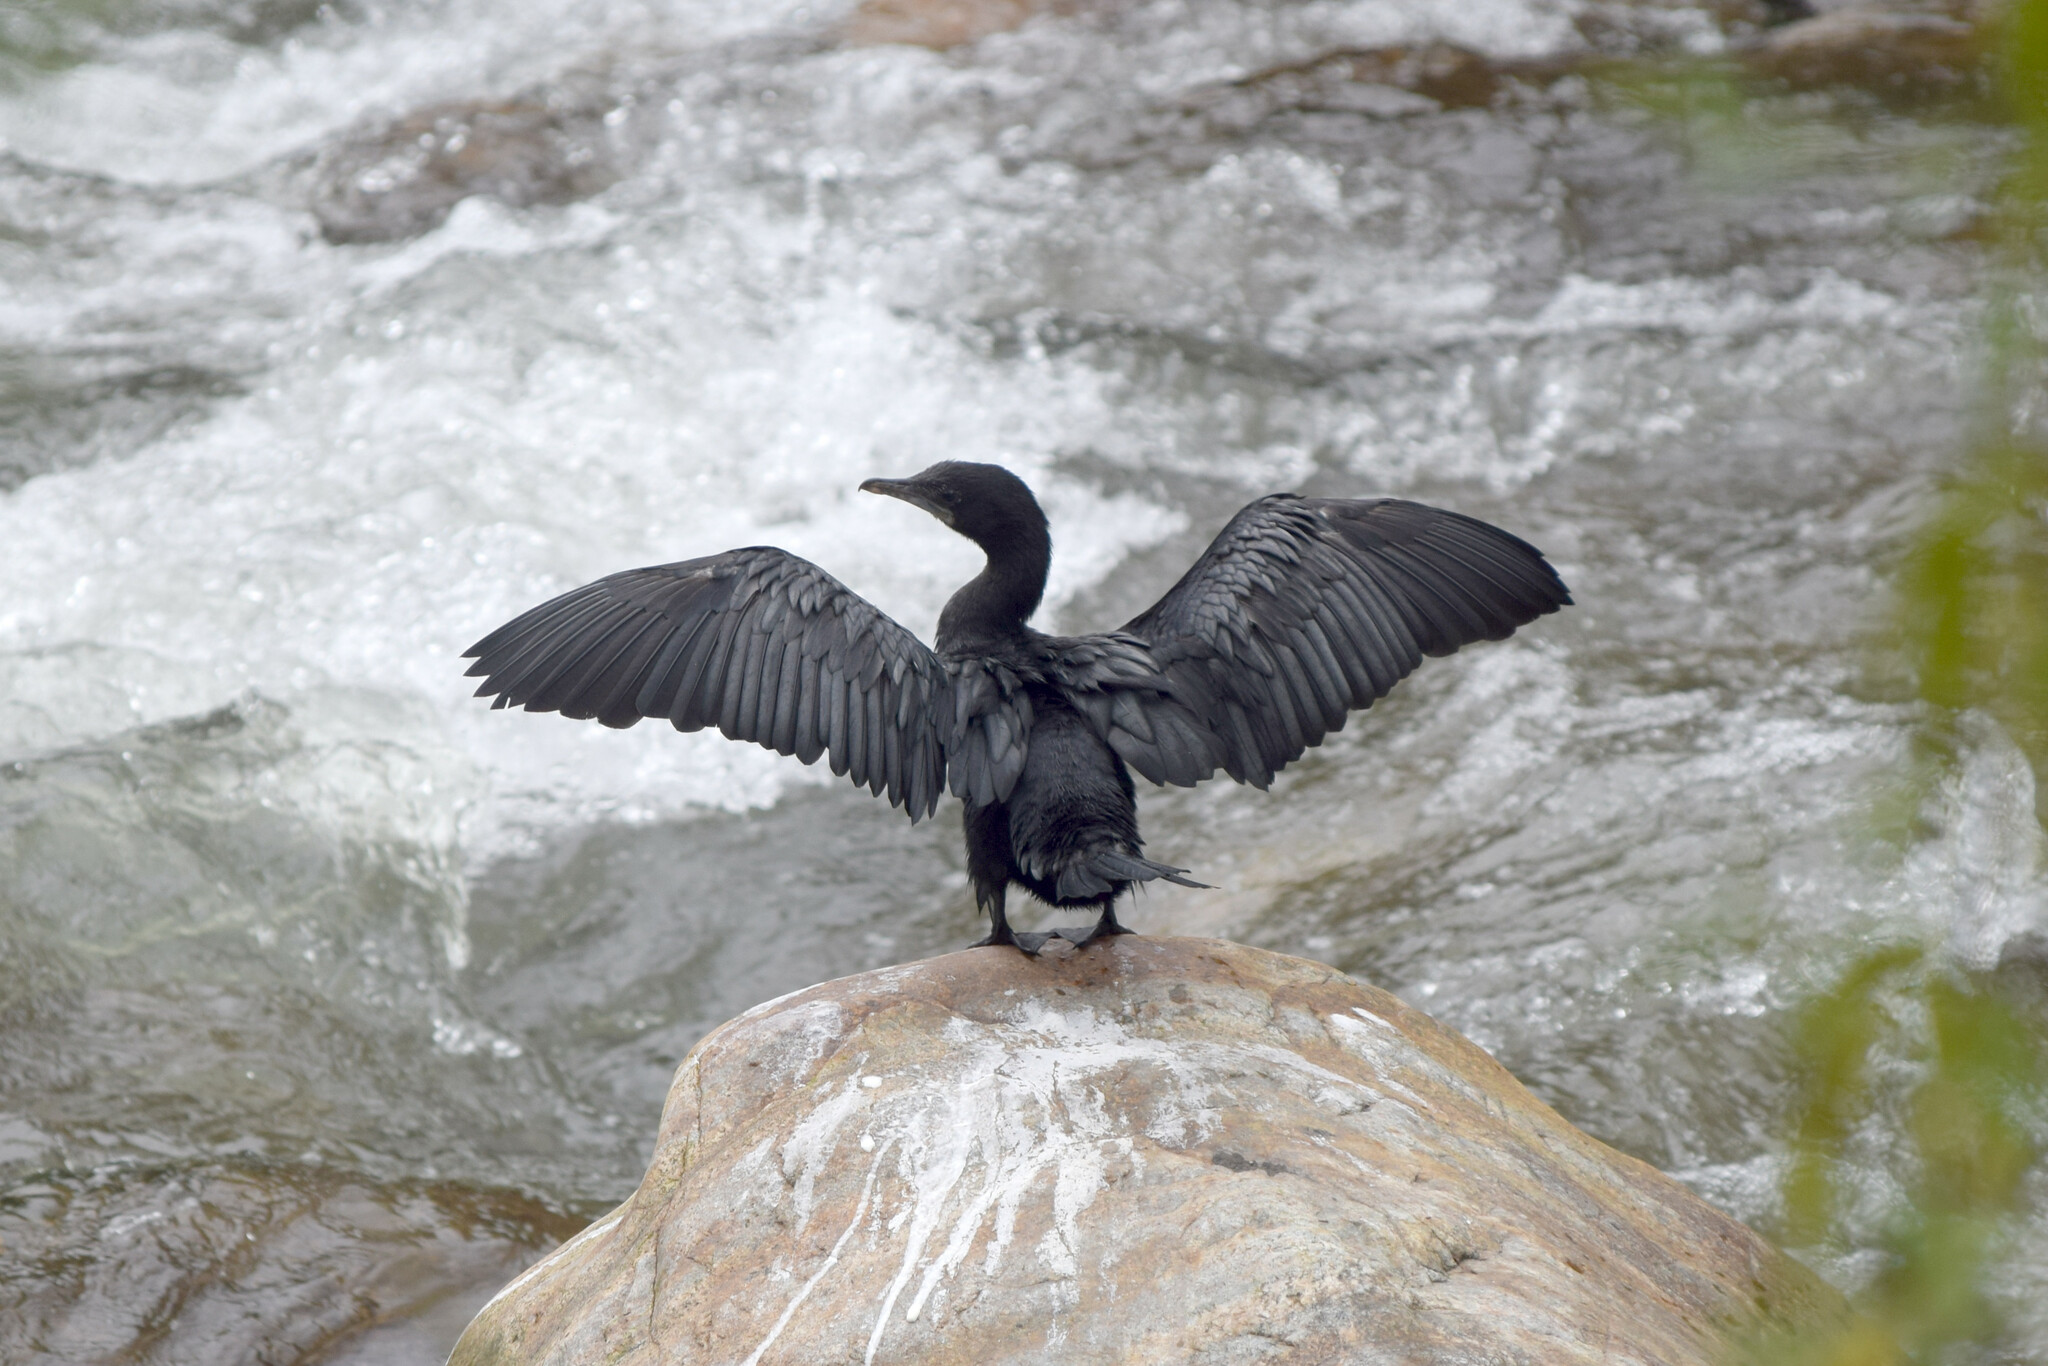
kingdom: Animalia
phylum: Chordata
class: Aves
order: Suliformes
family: Phalacrocoracidae
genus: Microcarbo
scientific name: Microcarbo niger
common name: Little cormorant
